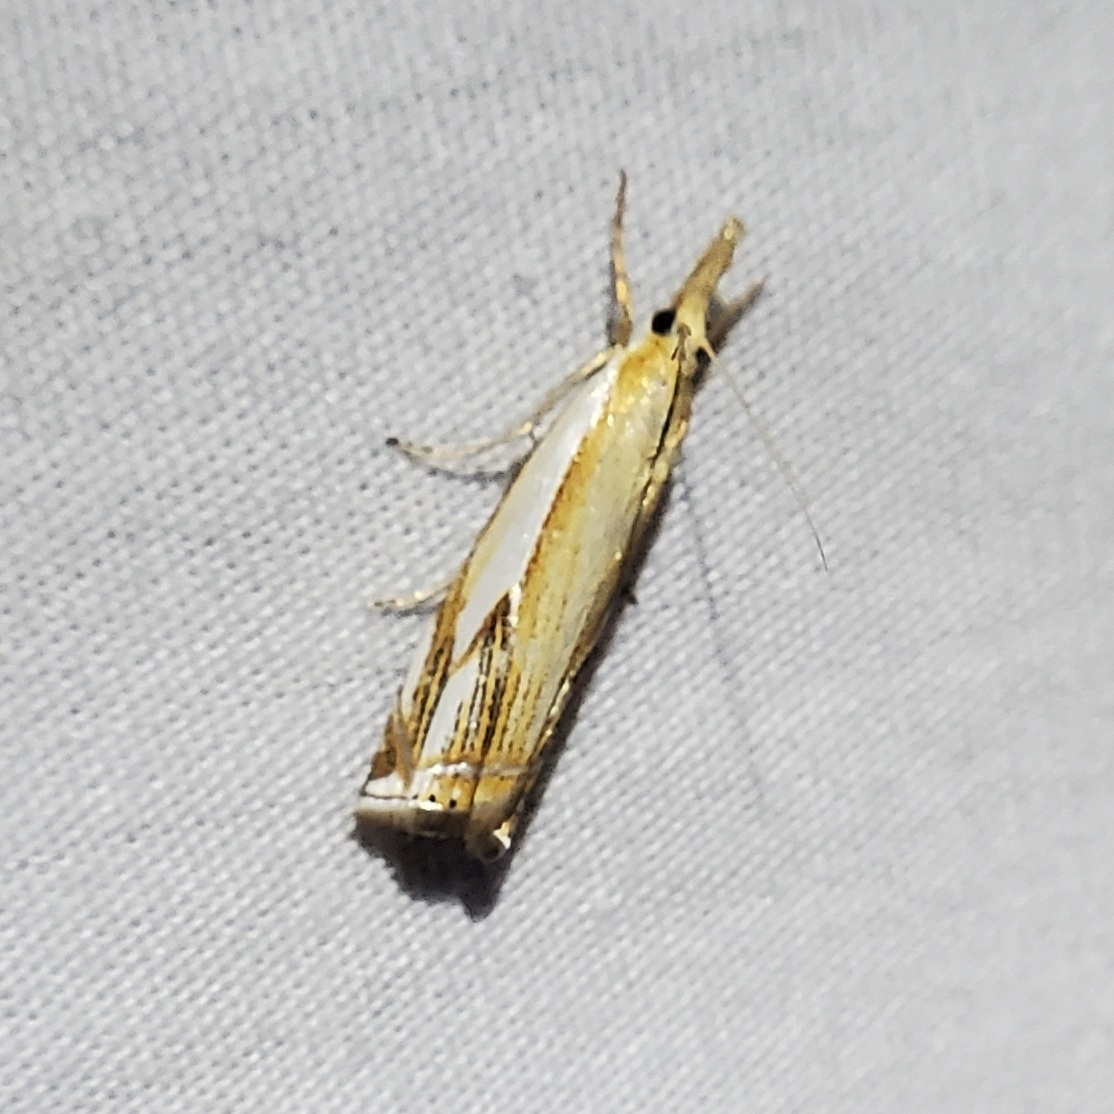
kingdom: Animalia
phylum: Arthropoda
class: Insecta
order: Lepidoptera
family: Crambidae
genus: Crambus
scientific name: Crambus agitatellus
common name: Double-banded grass-veneer
